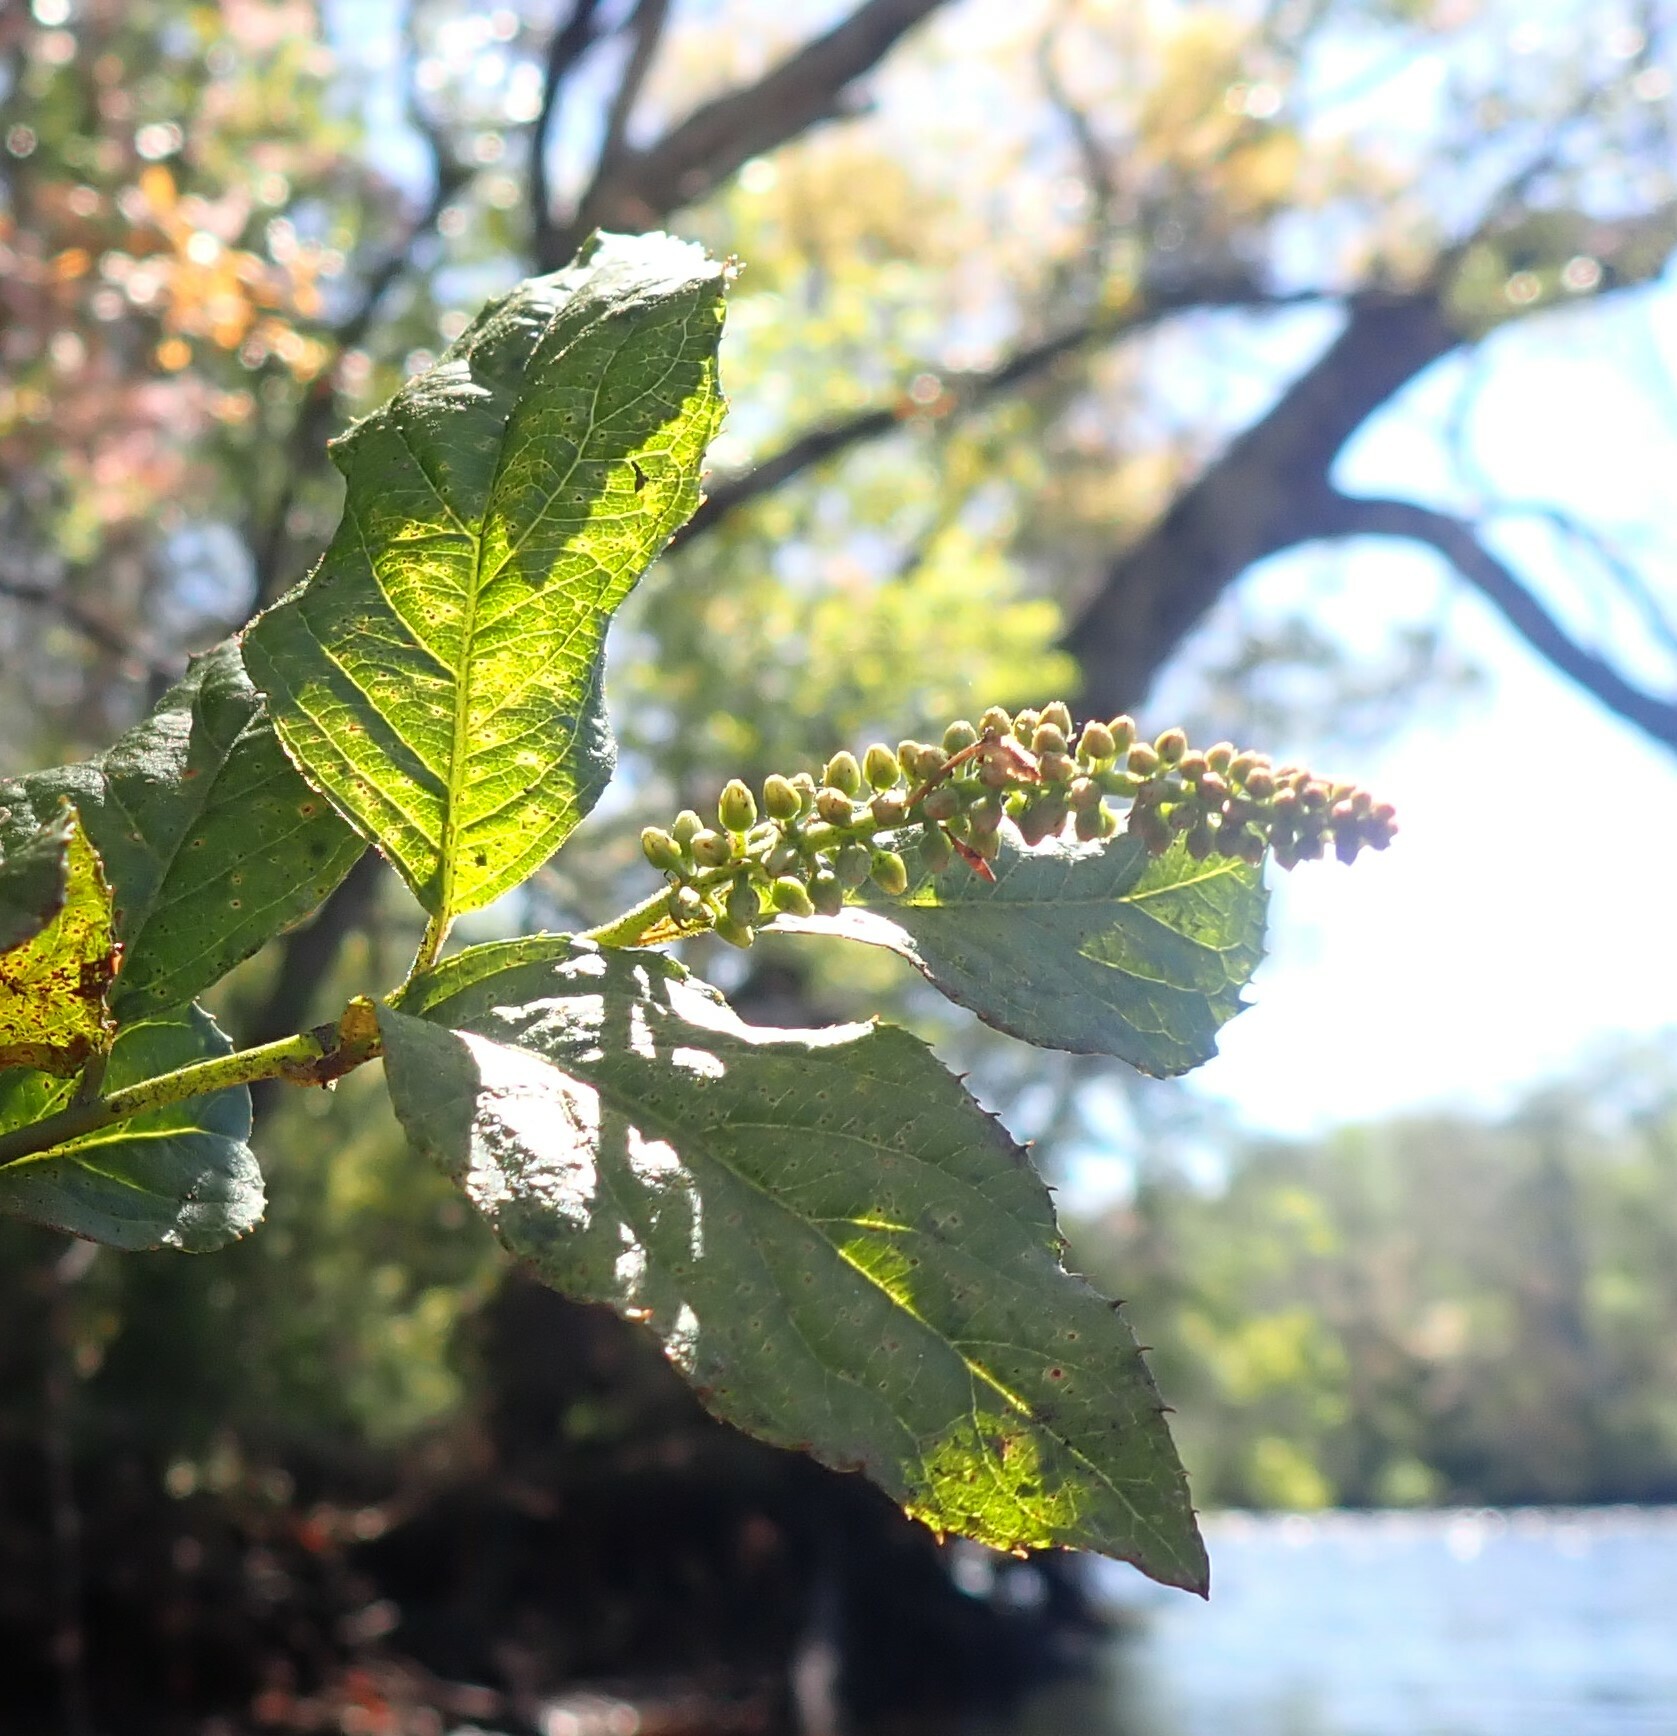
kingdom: Plantae
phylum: Tracheophyta
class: Magnoliopsida
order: Saxifragales
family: Iteaceae
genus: Itea
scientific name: Itea virginica
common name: Sweetspire
